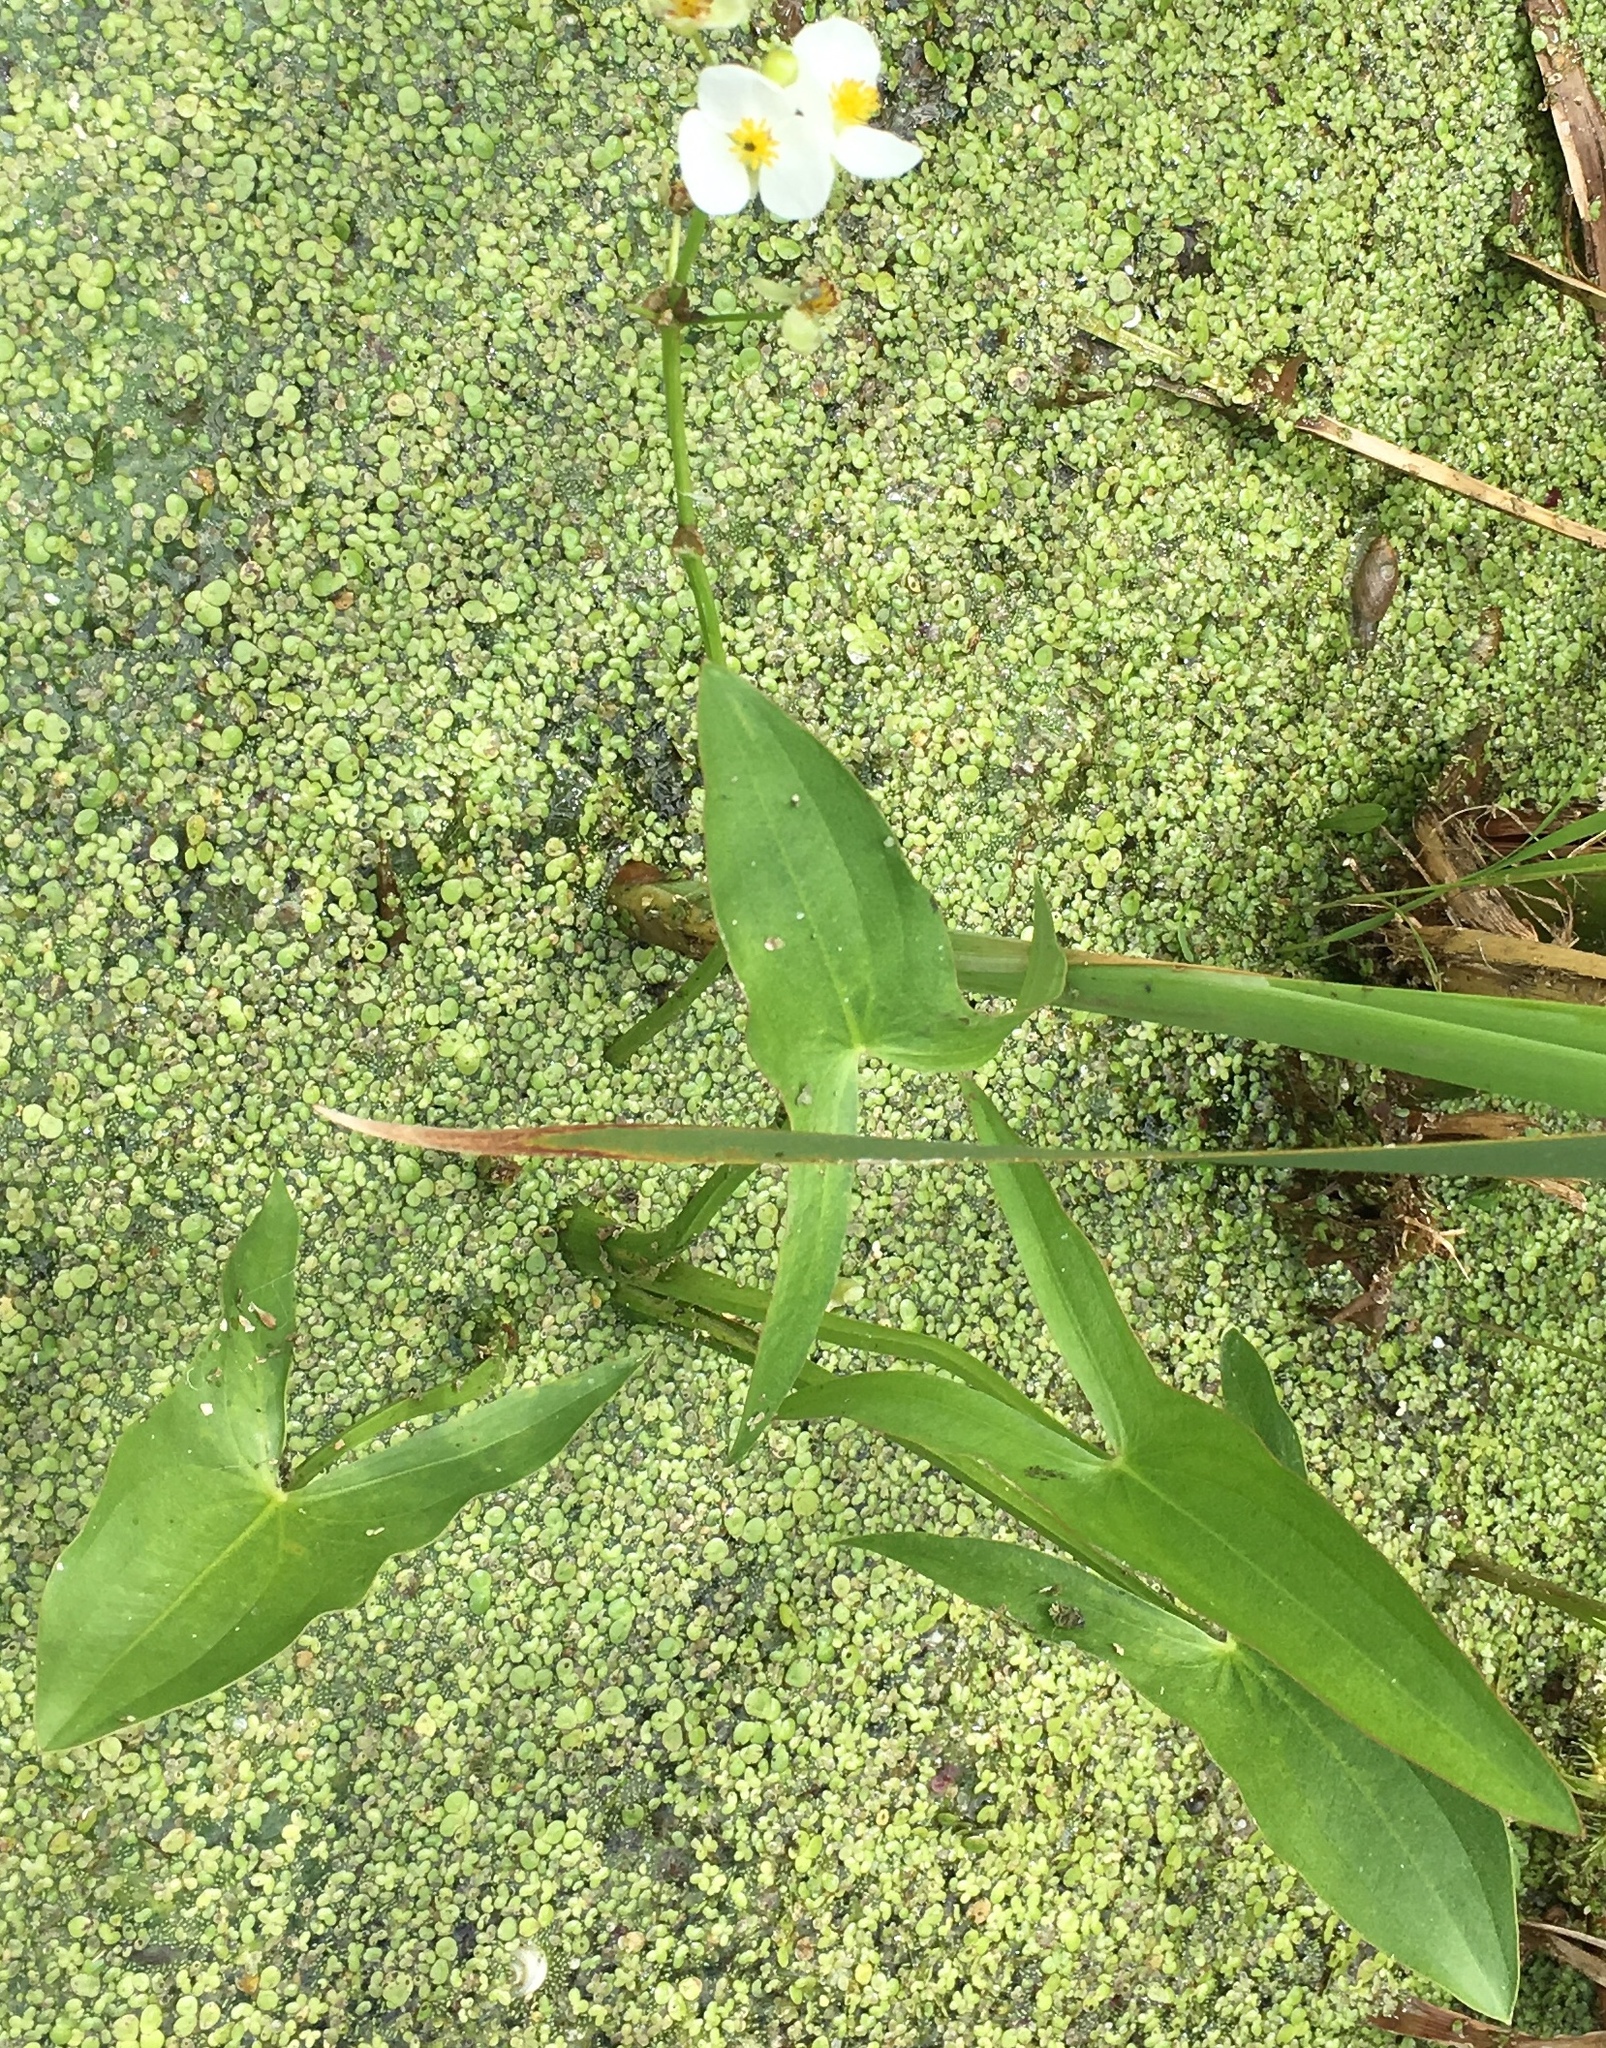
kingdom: Plantae
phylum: Tracheophyta
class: Liliopsida
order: Alismatales
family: Alismataceae
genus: Sagittaria
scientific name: Sagittaria latifolia
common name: Duck-potato
